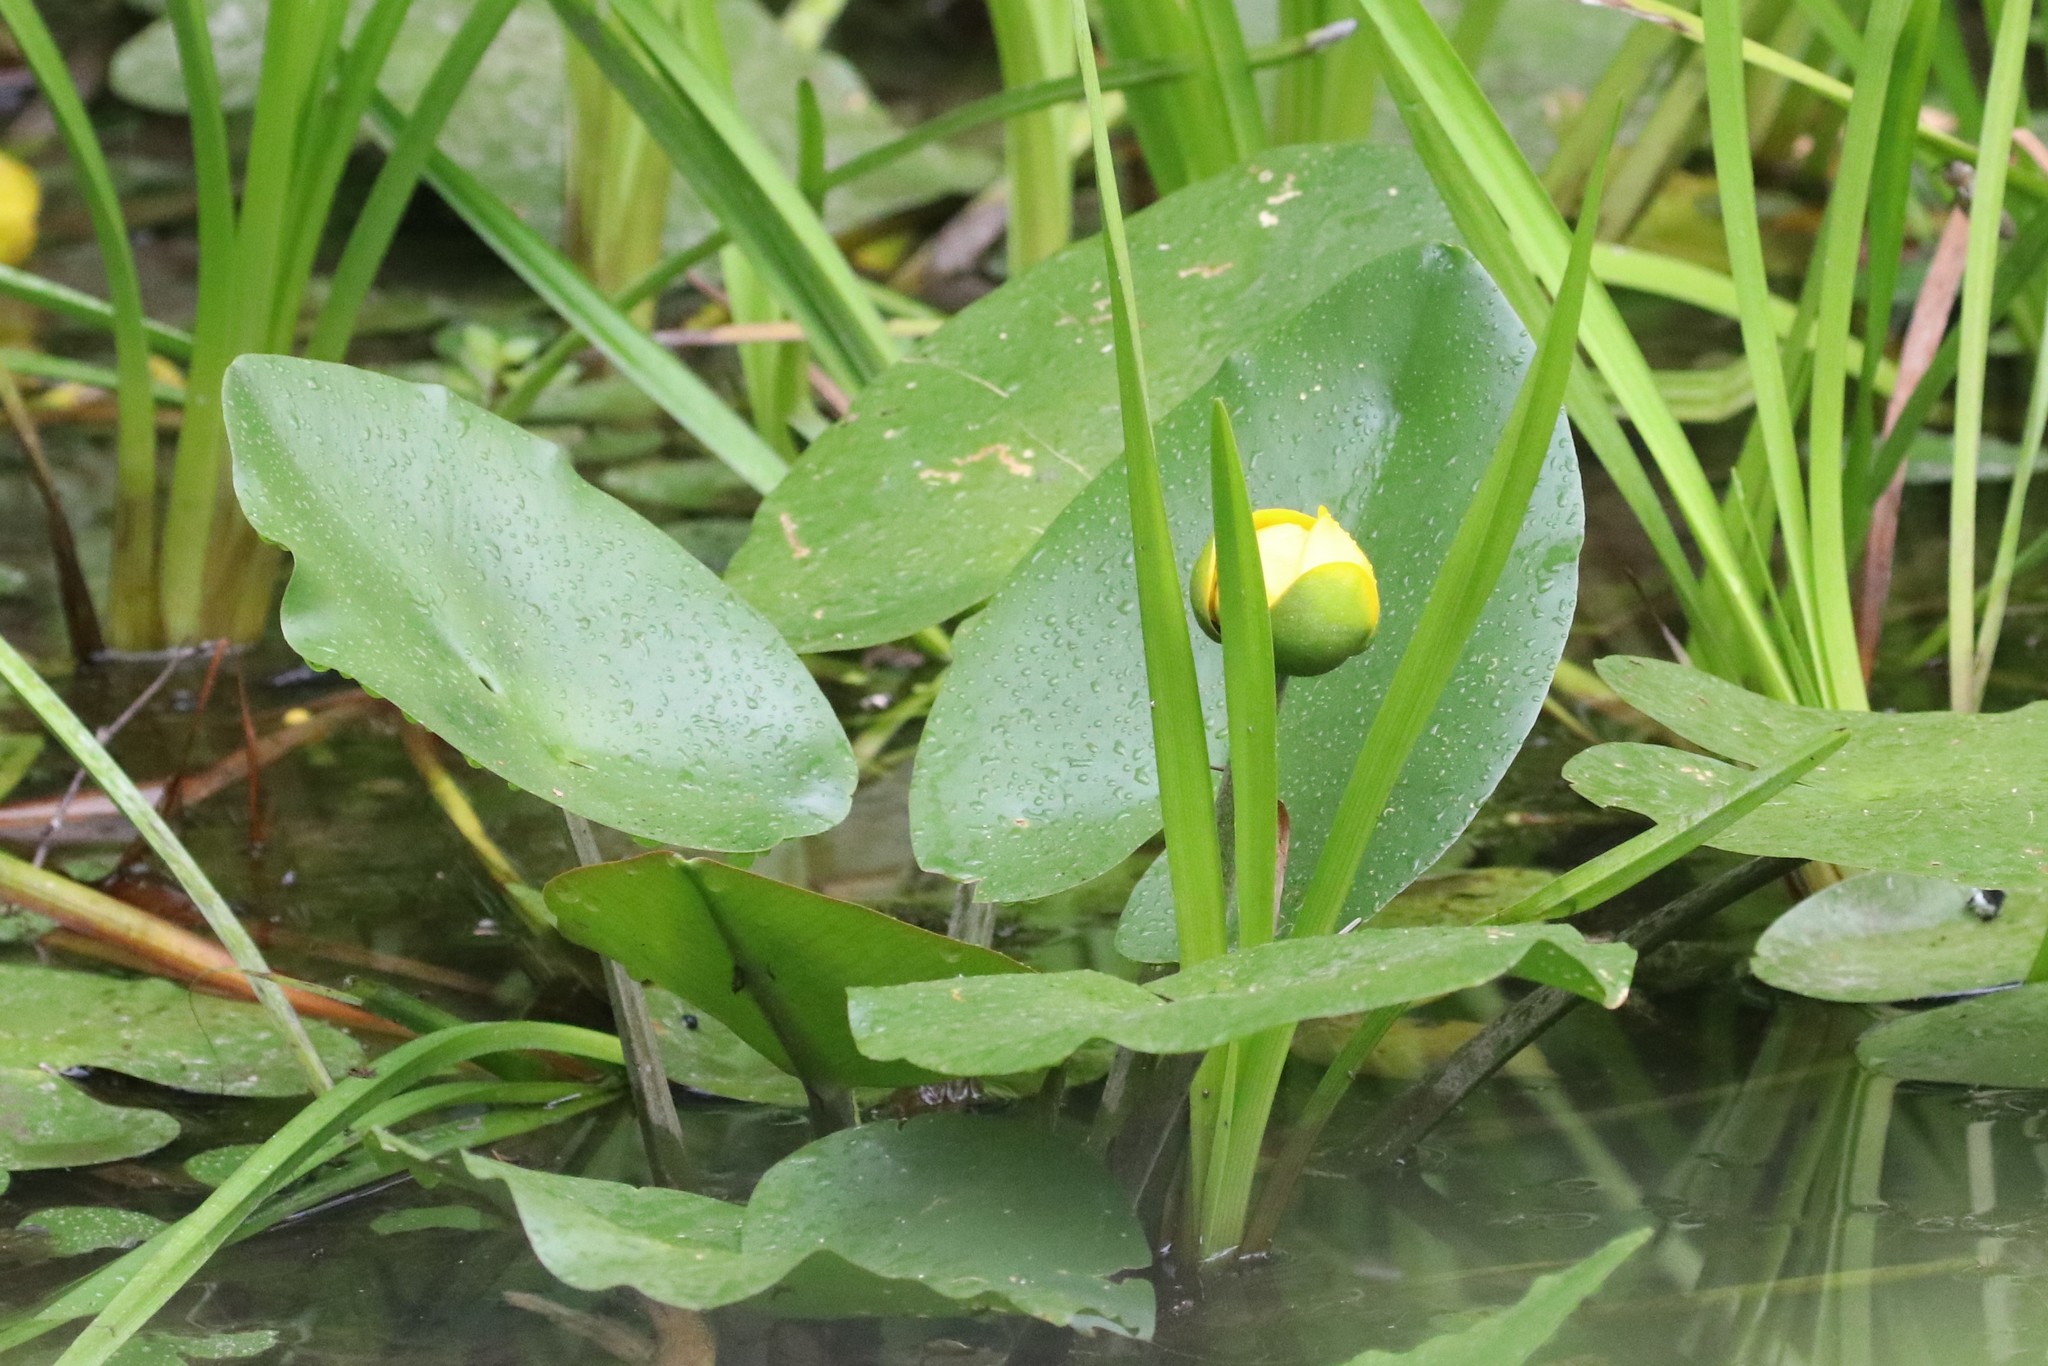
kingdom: Plantae
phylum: Tracheophyta
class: Magnoliopsida
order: Nymphaeales
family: Nymphaeaceae
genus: Nuphar
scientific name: Nuphar variegata
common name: Beaver-root
